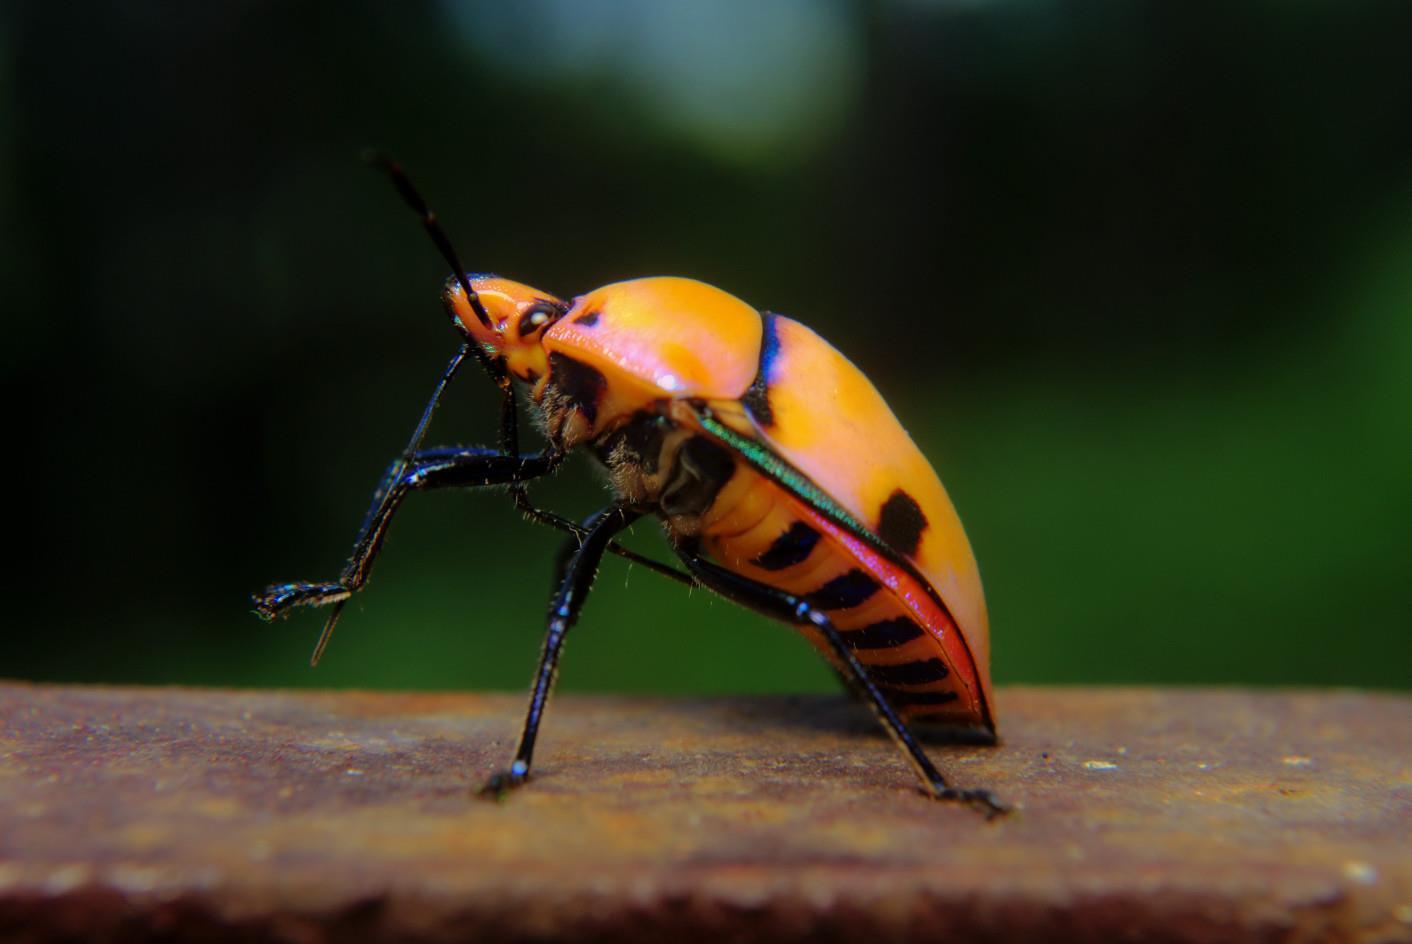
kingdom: Animalia
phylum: Arthropoda
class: Insecta
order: Hemiptera
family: Scutelleridae
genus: Eucorysses
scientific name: Eucorysses grandis
